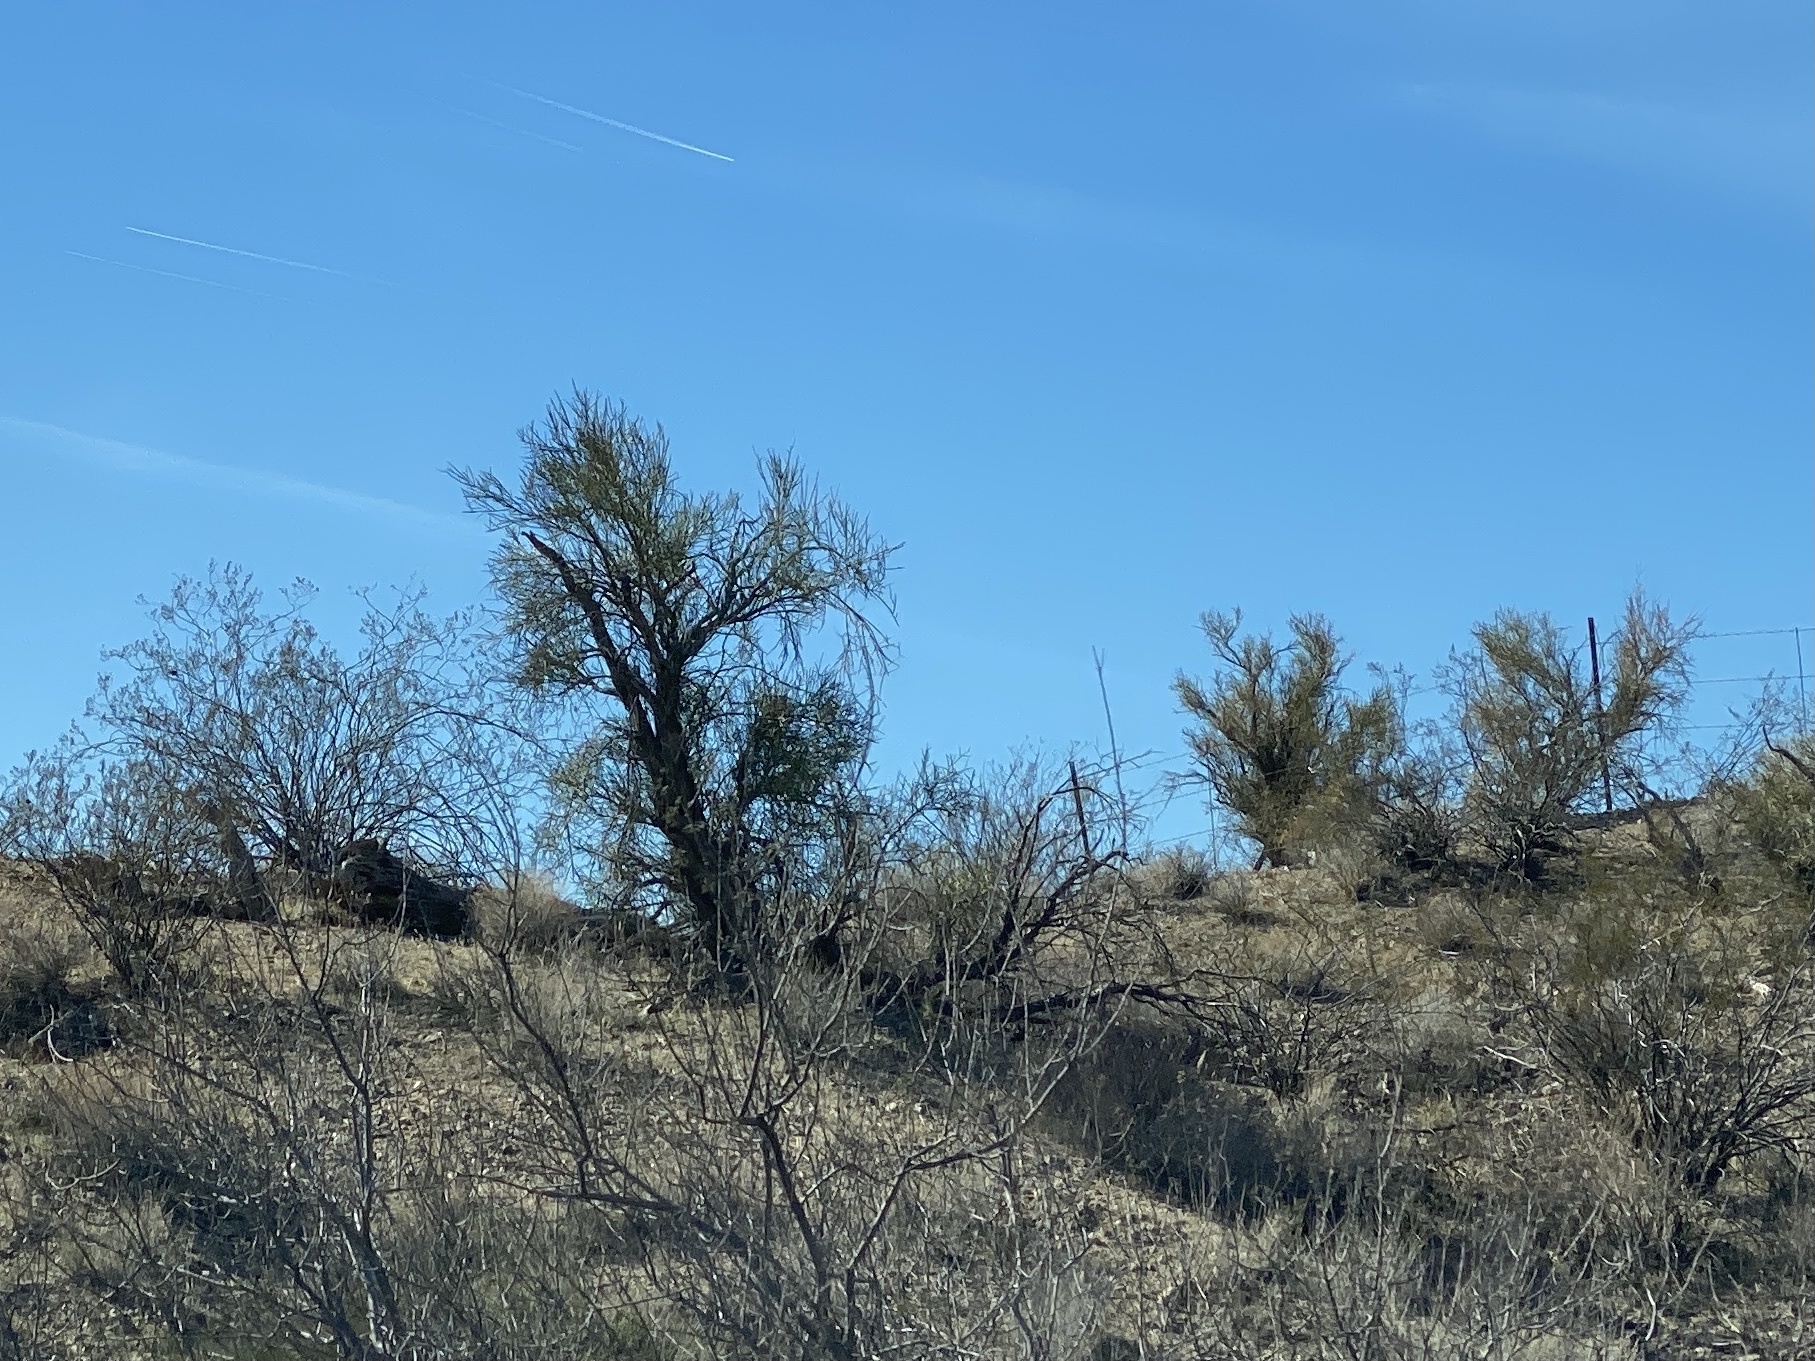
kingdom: Plantae
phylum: Tracheophyta
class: Magnoliopsida
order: Celastrales
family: Celastraceae
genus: Canotia
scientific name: Canotia holacantha
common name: Crucifixion thorns
